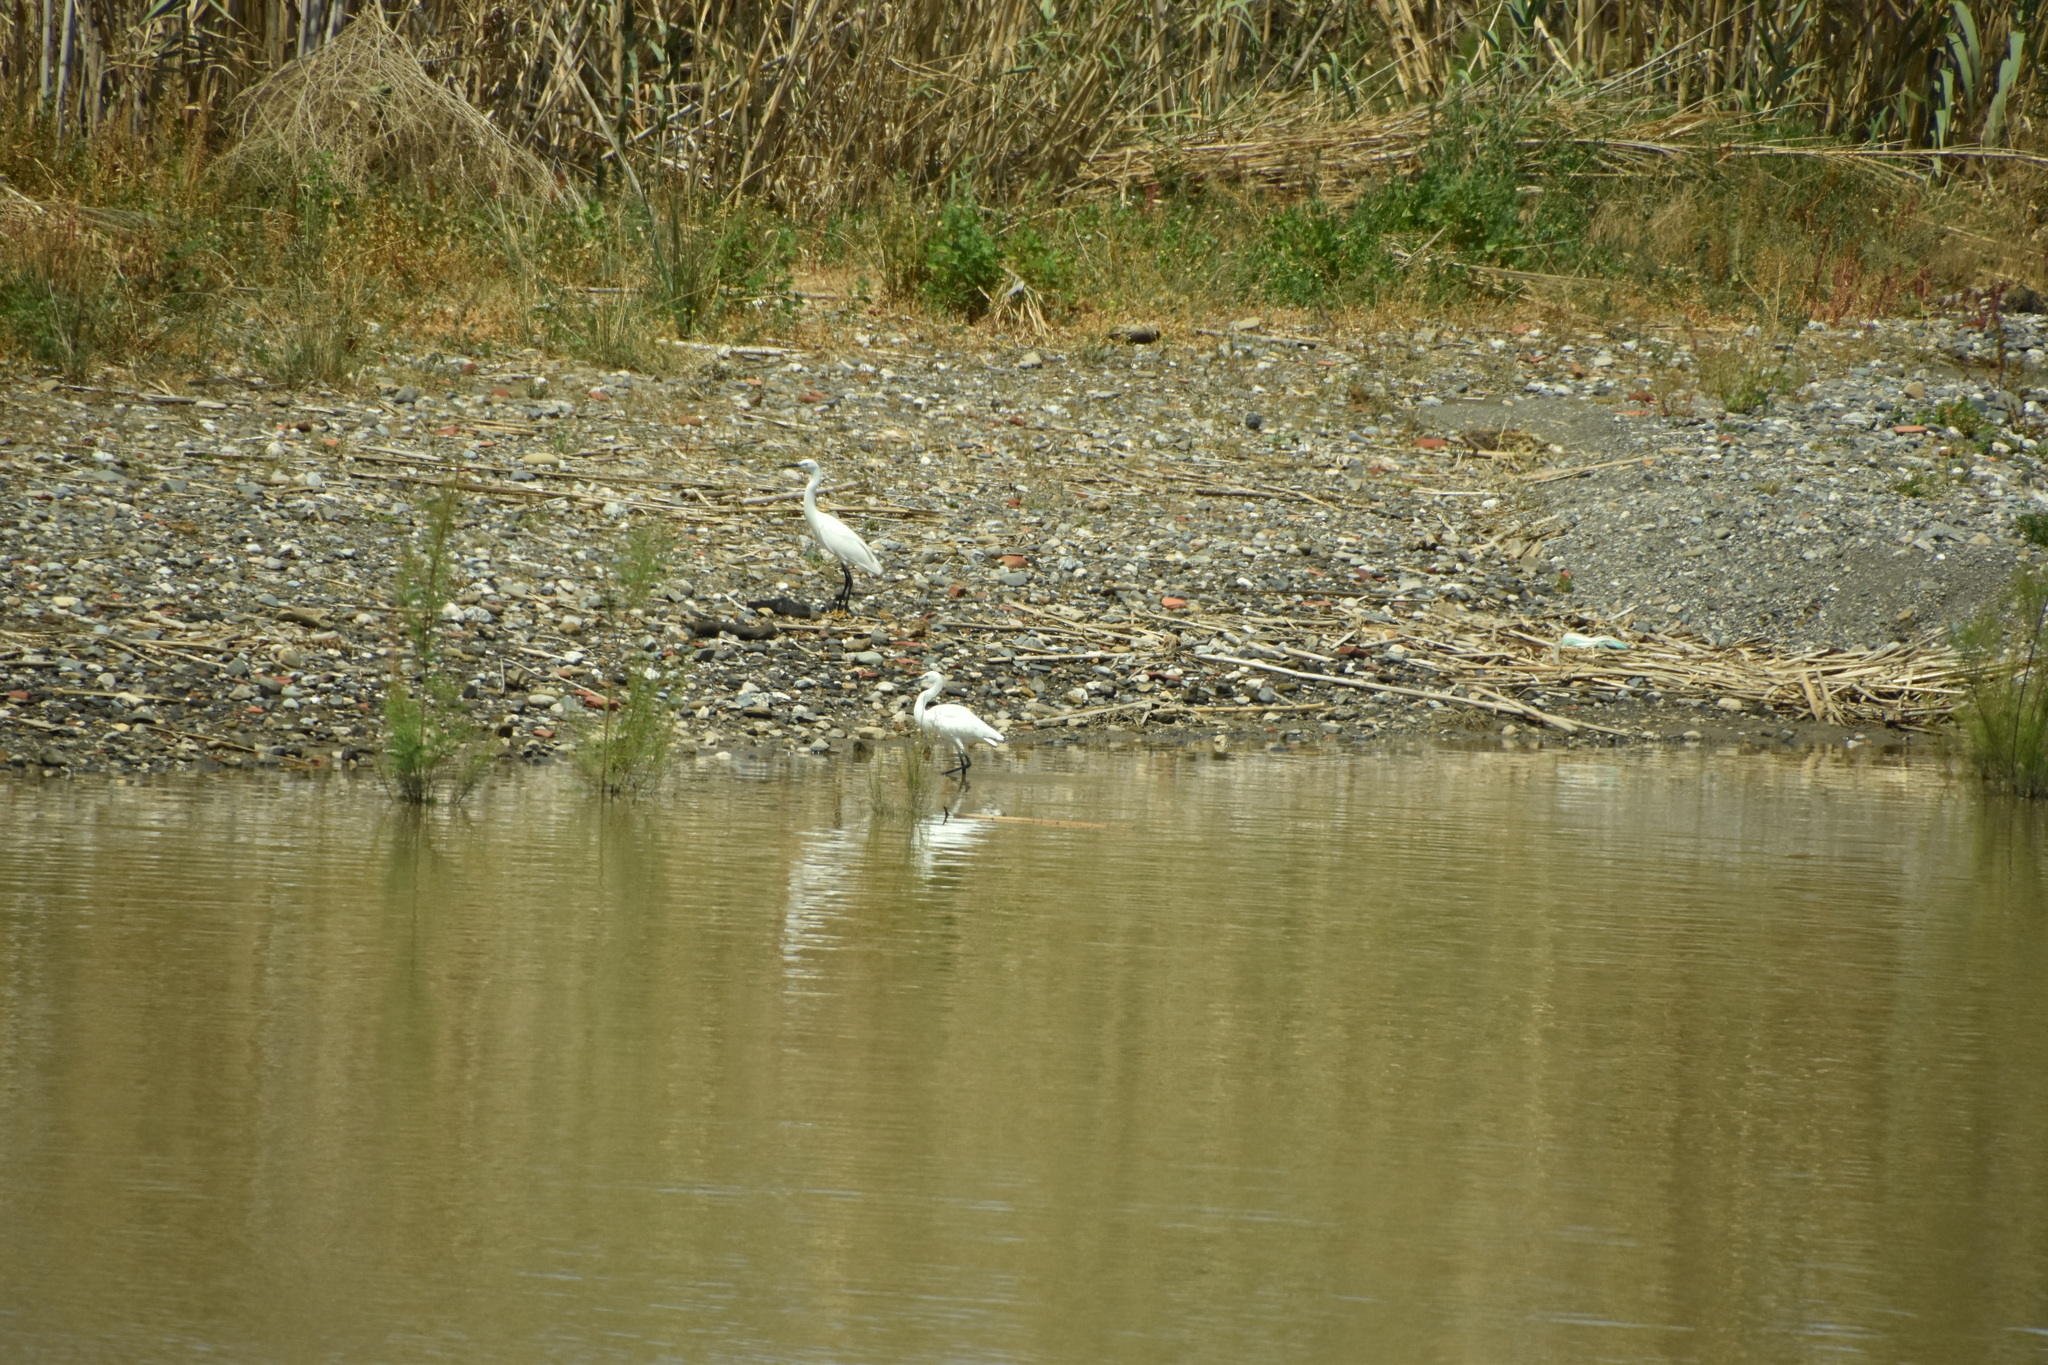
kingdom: Animalia
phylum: Chordata
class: Aves
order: Pelecaniformes
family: Ardeidae
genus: Egretta
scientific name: Egretta garzetta
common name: Little egret
